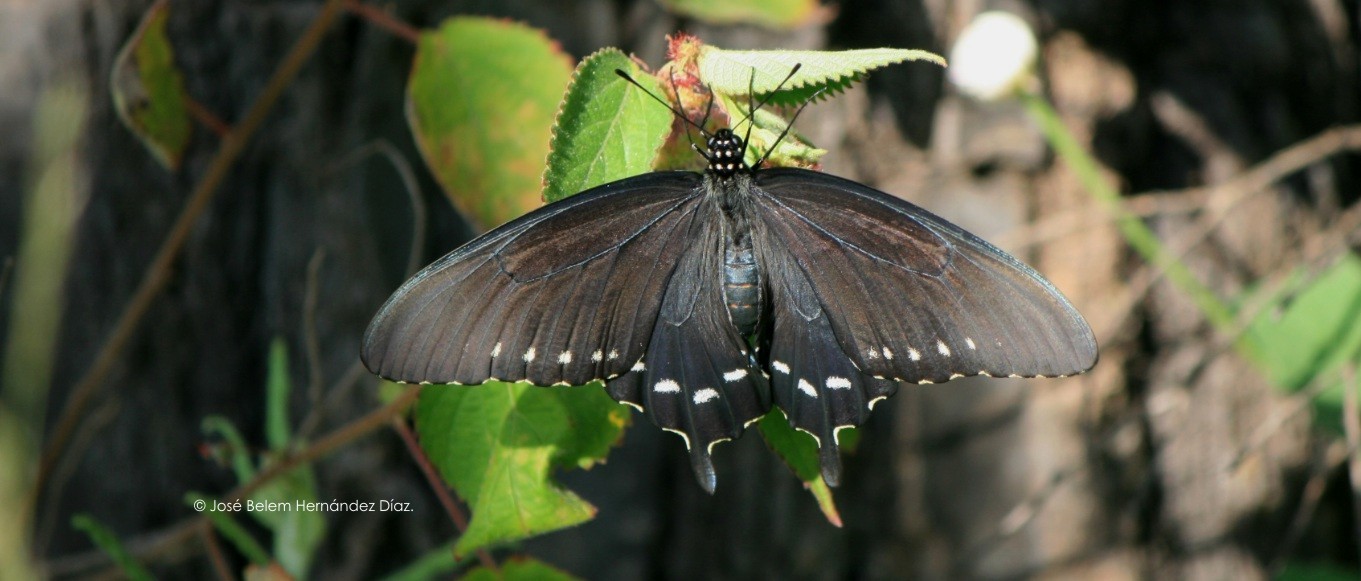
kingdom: Animalia
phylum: Arthropoda
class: Insecta
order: Lepidoptera
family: Papilionidae
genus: Battus
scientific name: Battus philenor
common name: Pipevine swallowtail
